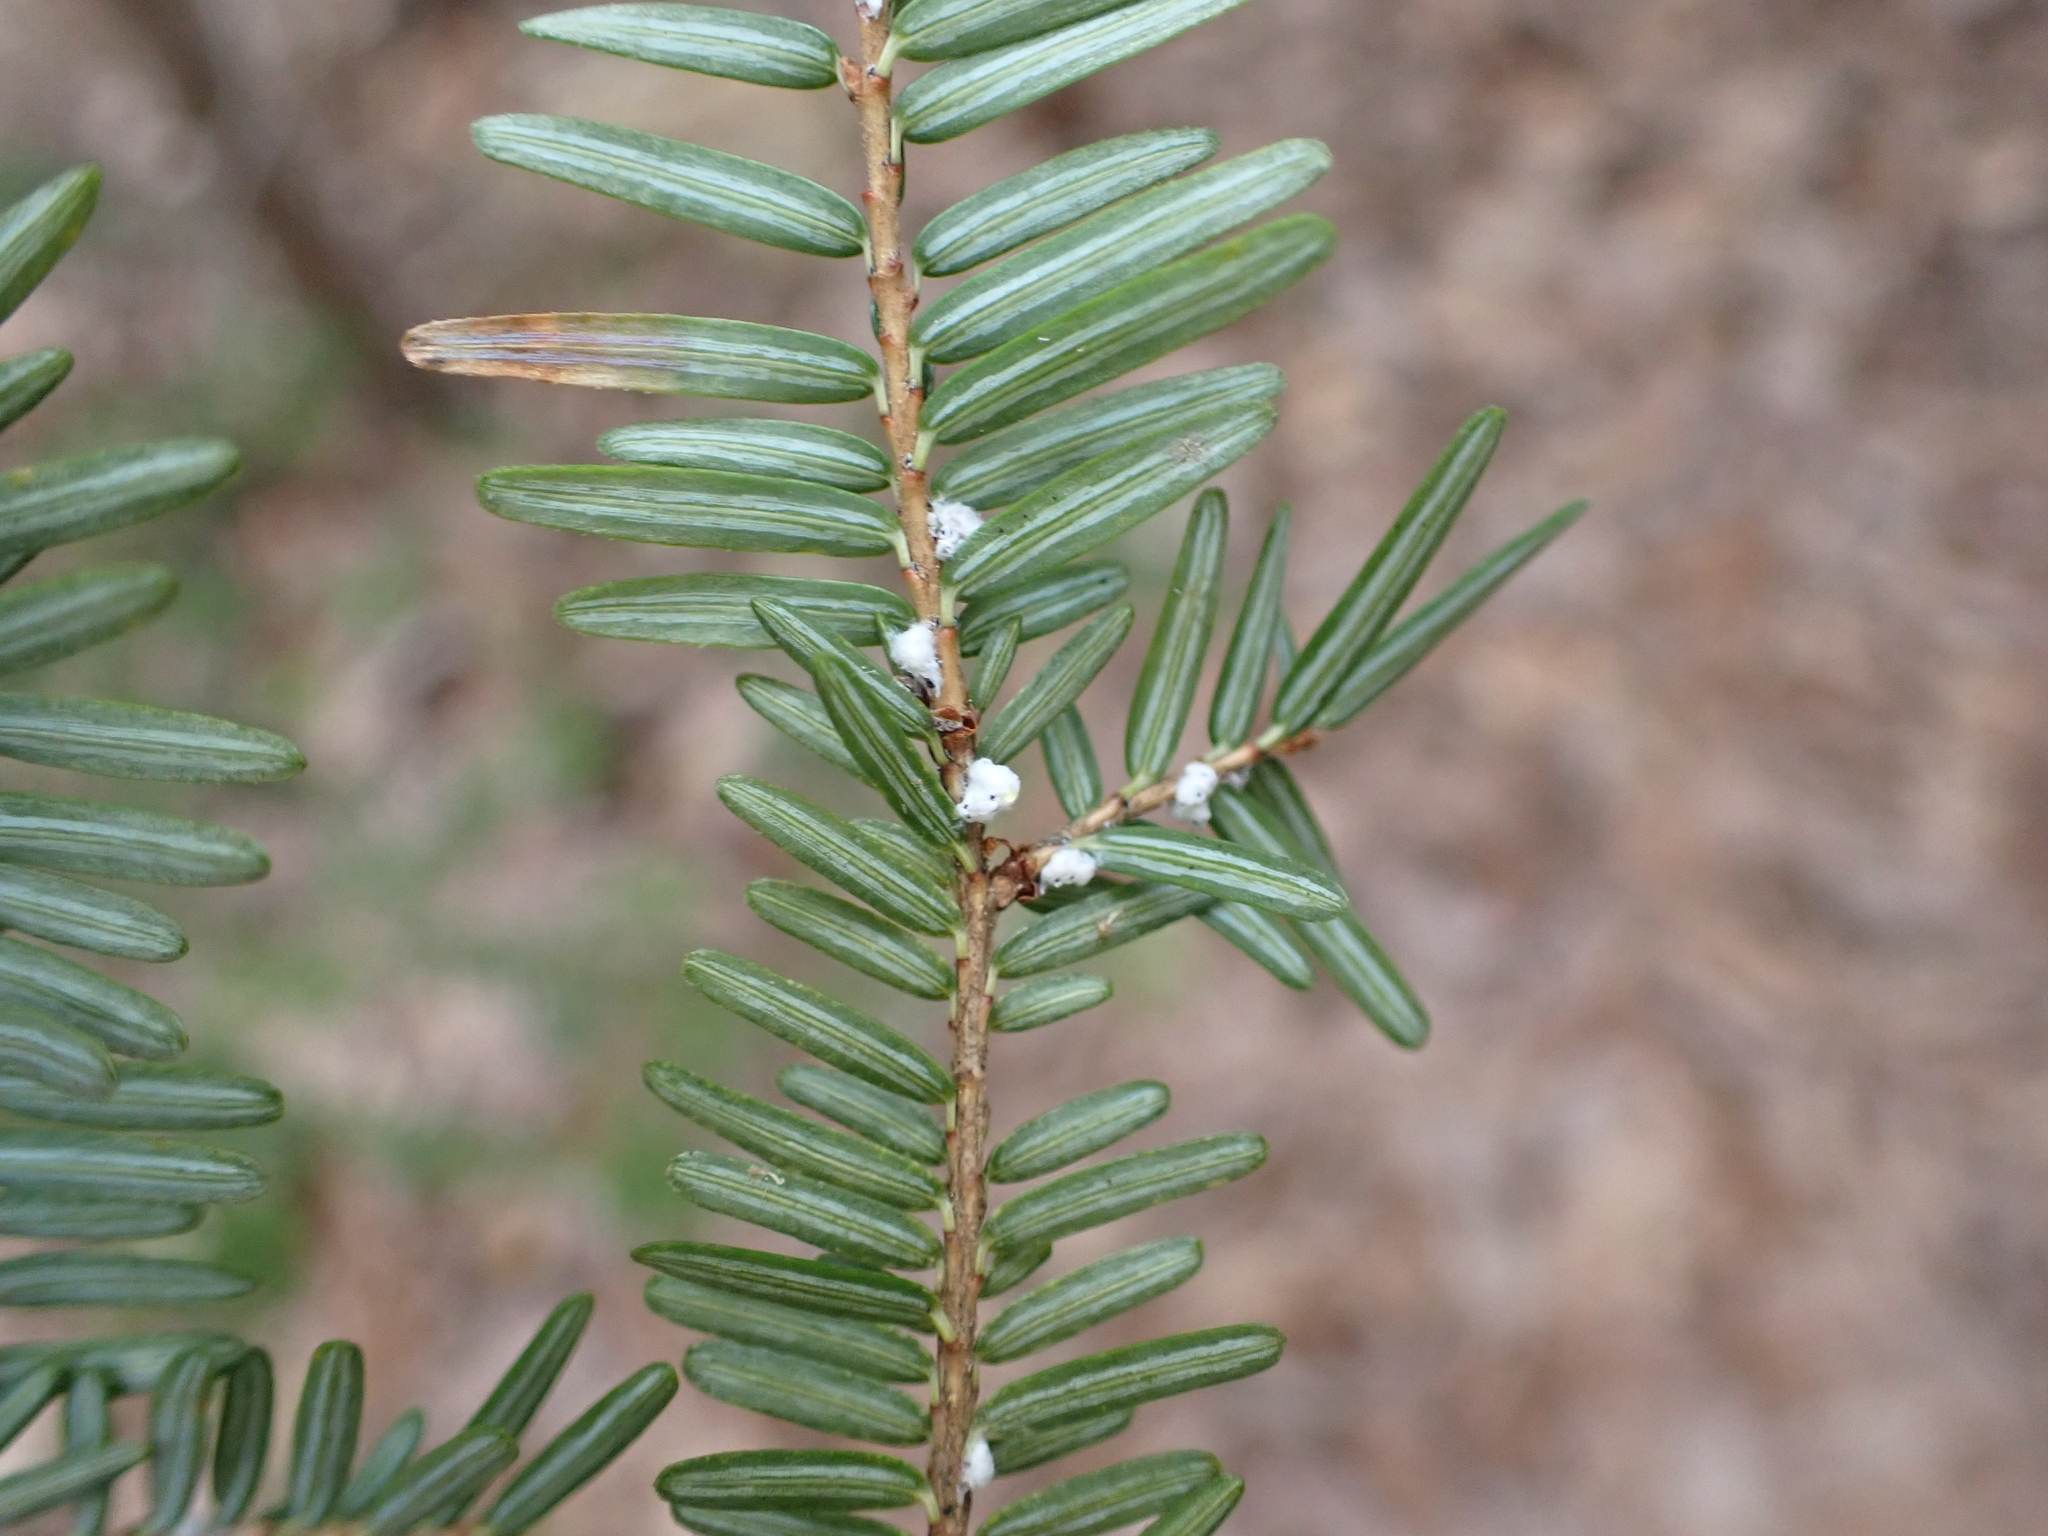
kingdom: Animalia
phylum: Arthropoda
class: Insecta
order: Hemiptera
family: Adelgidae
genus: Adelges
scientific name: Adelges tsugae
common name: Hemlock woolly adelgid
